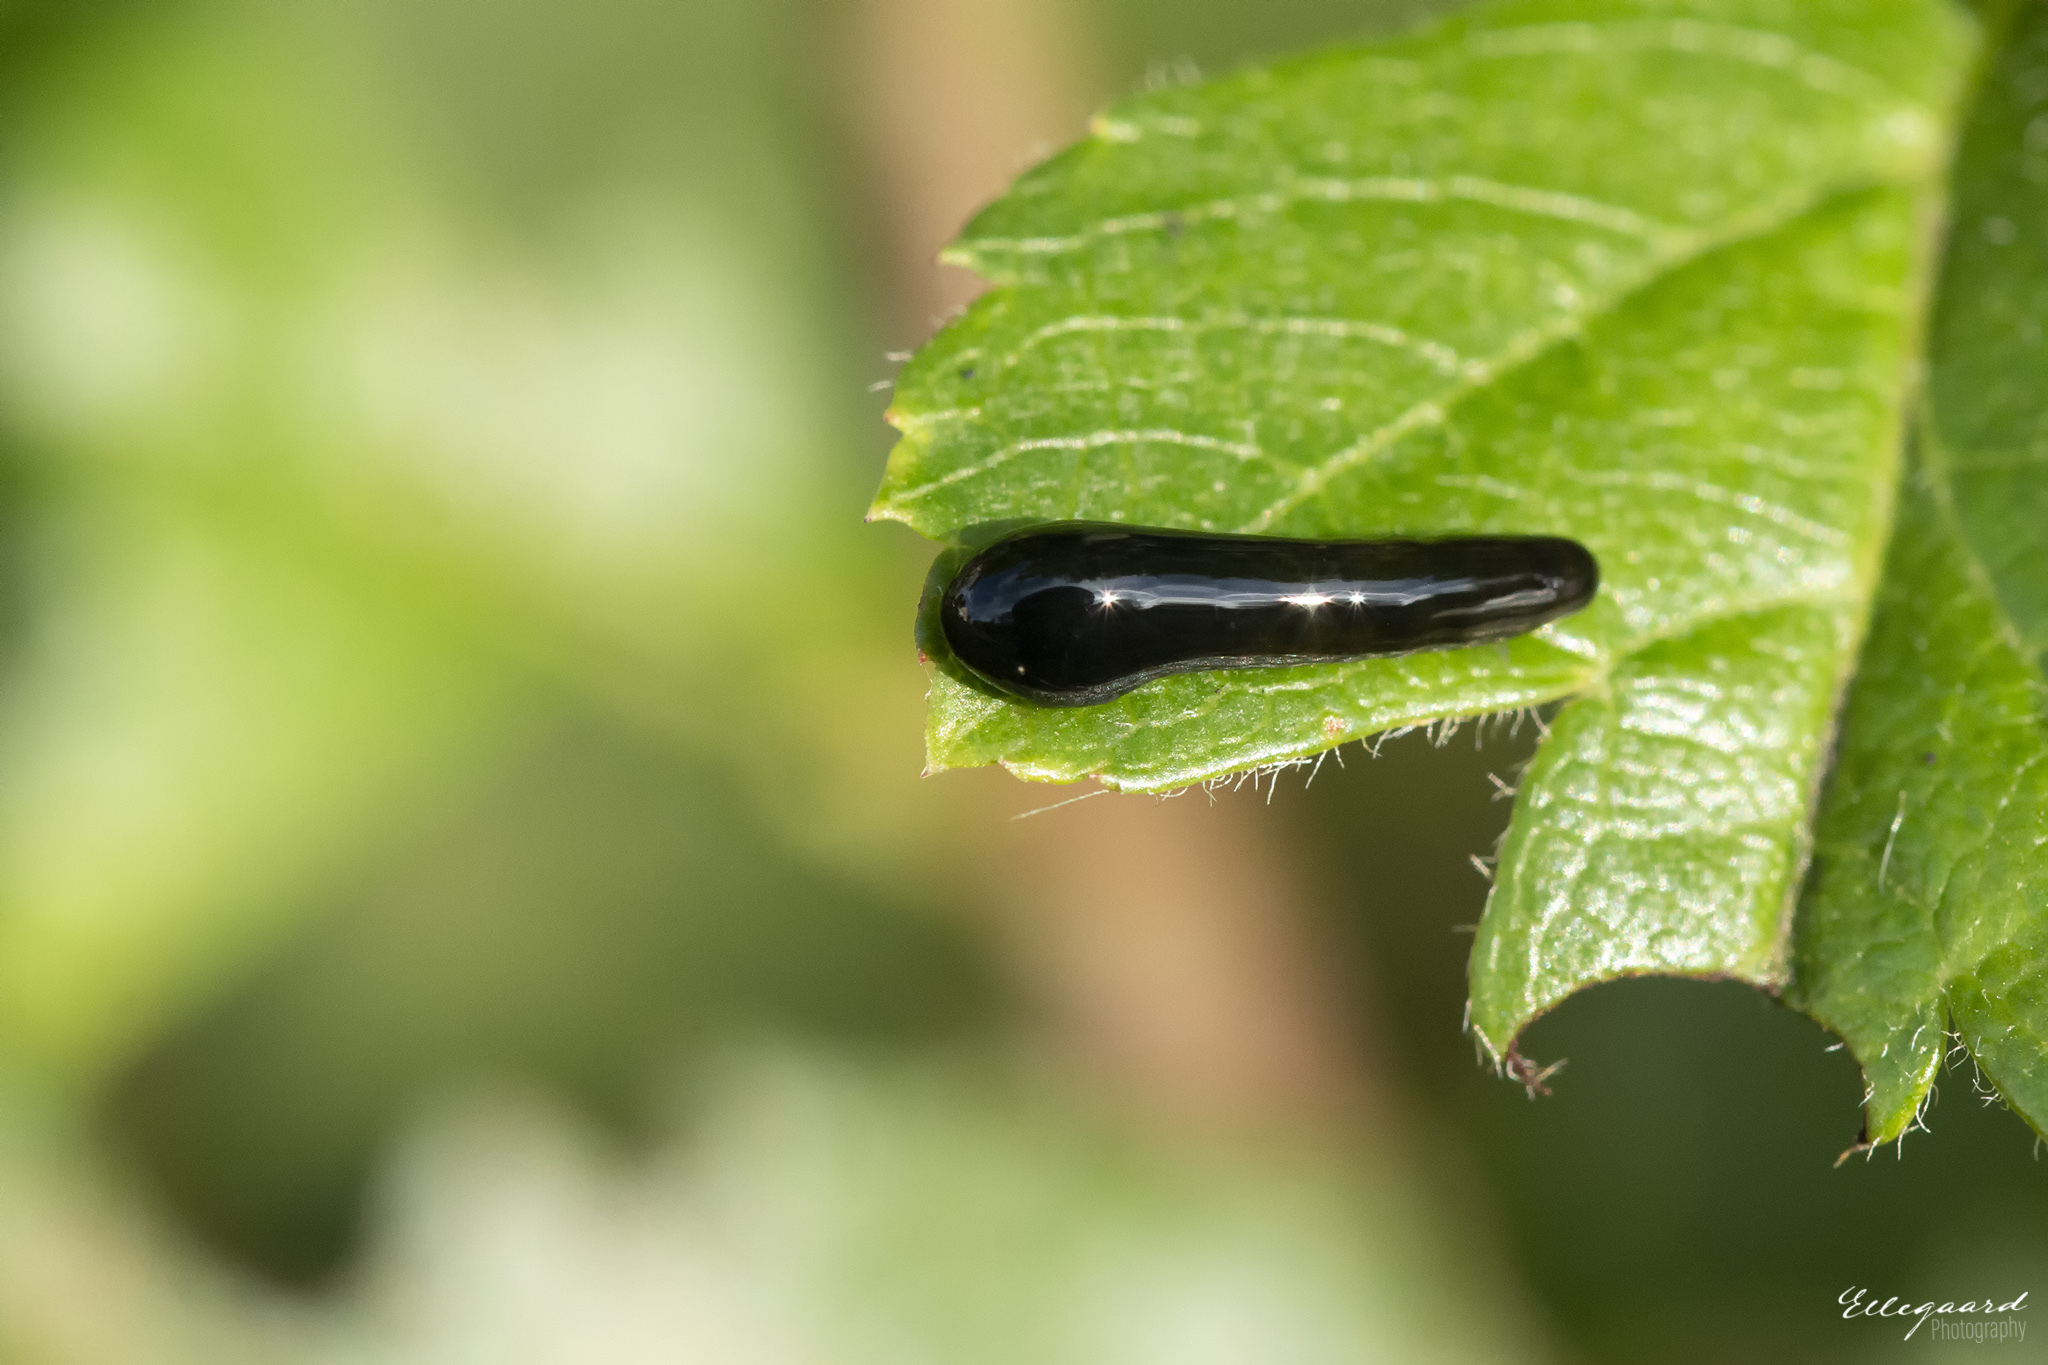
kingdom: Animalia
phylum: Arthropoda
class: Insecta
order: Hymenoptera
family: Tenthredinidae
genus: Caliroa
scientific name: Caliroa cerasi
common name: Pear sawfly
